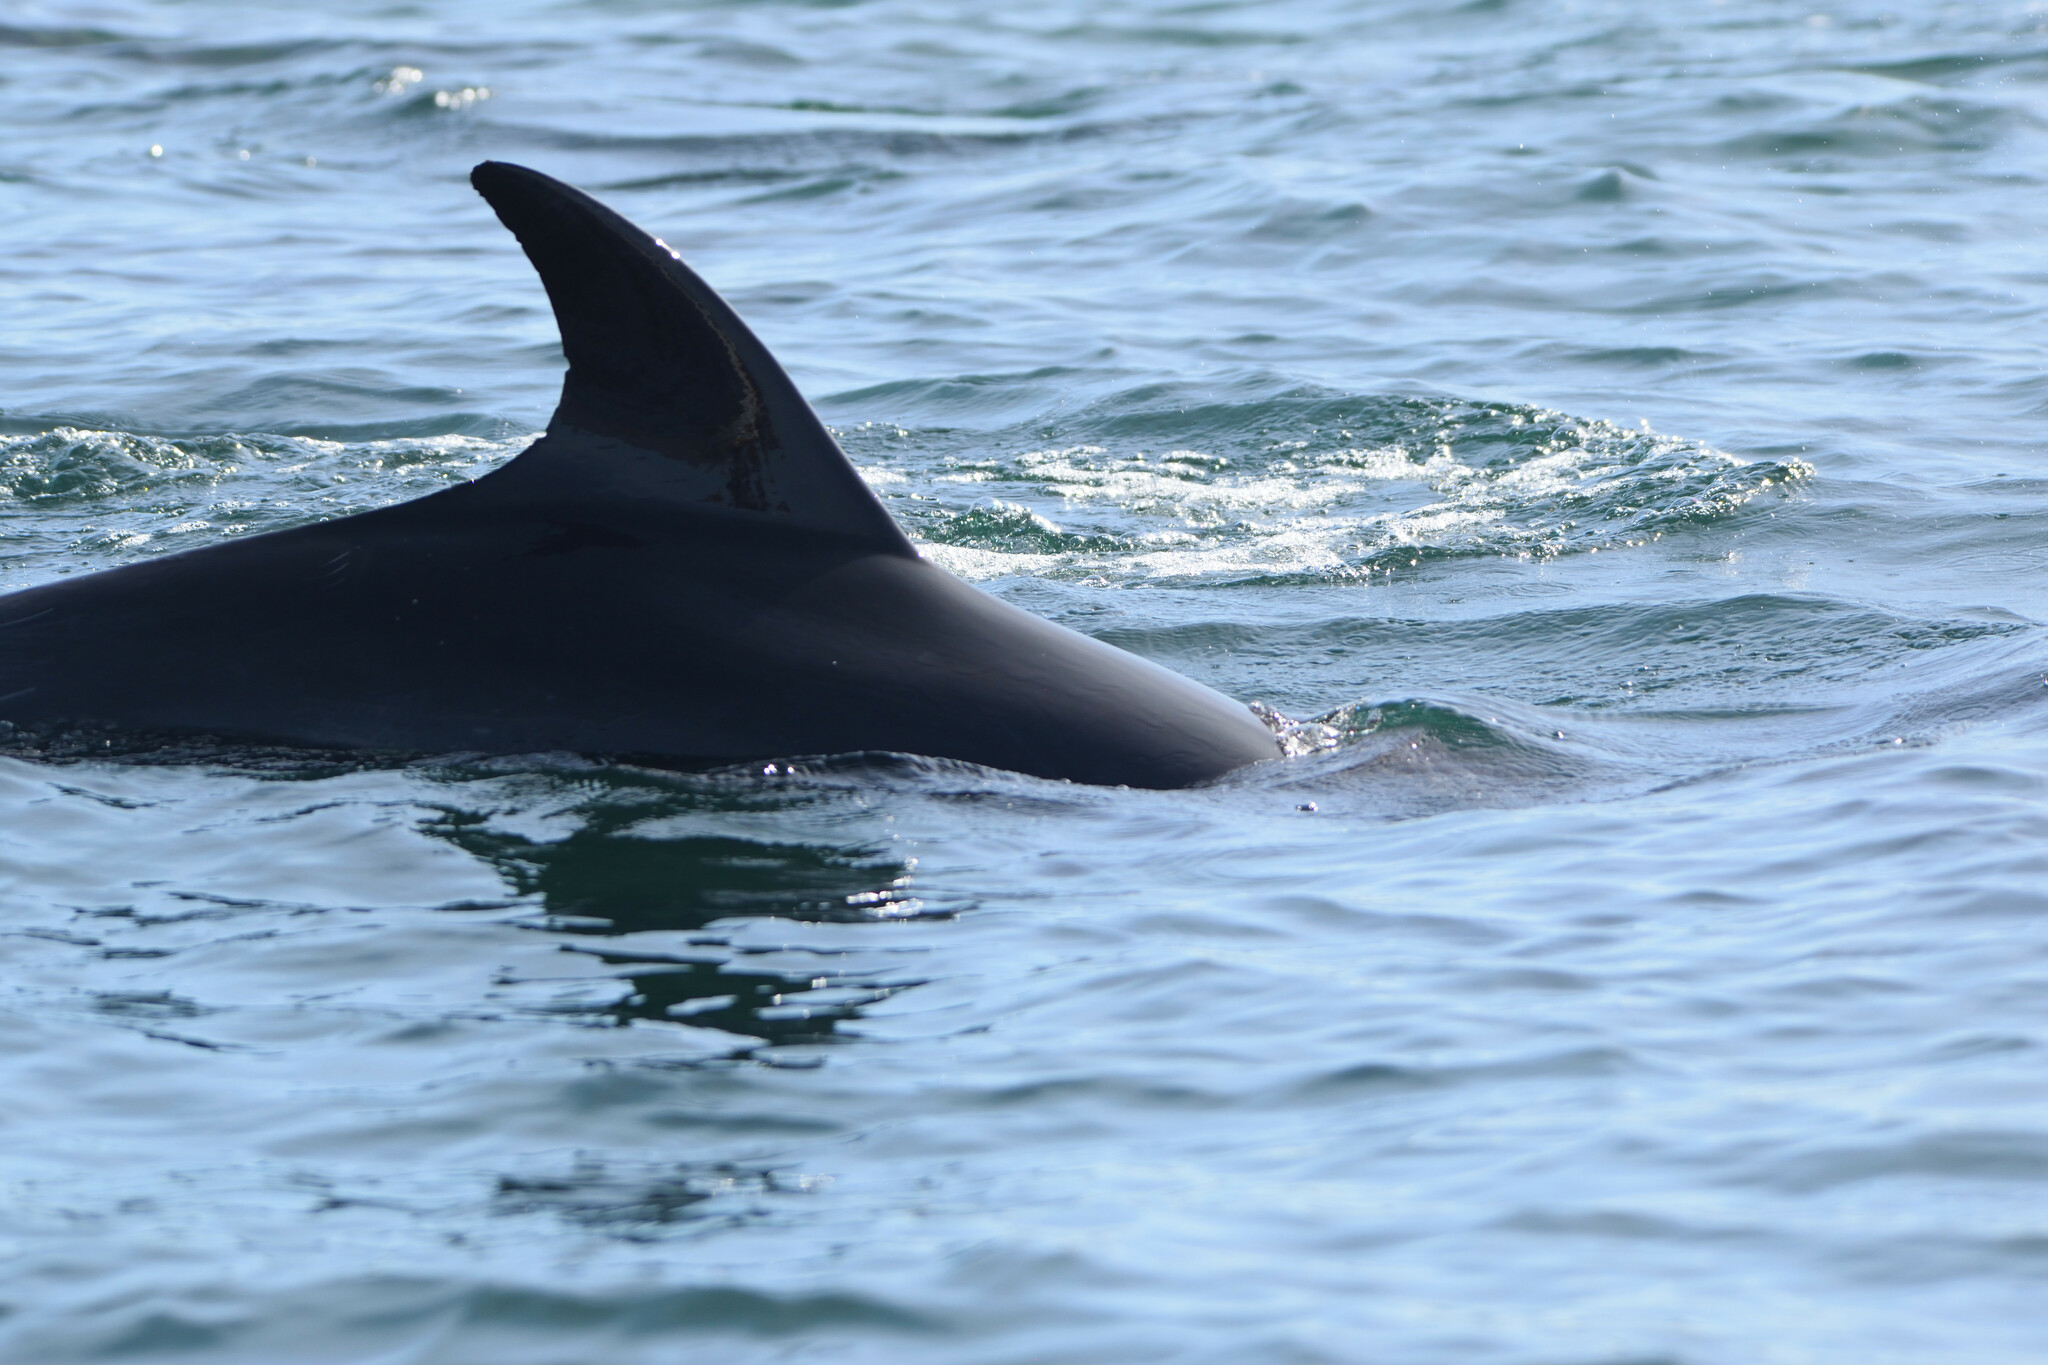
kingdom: Animalia
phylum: Chordata
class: Mammalia
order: Cetacea
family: Delphinidae
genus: Tursiops
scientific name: Tursiops truncatus
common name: Bottlenose dolphin
